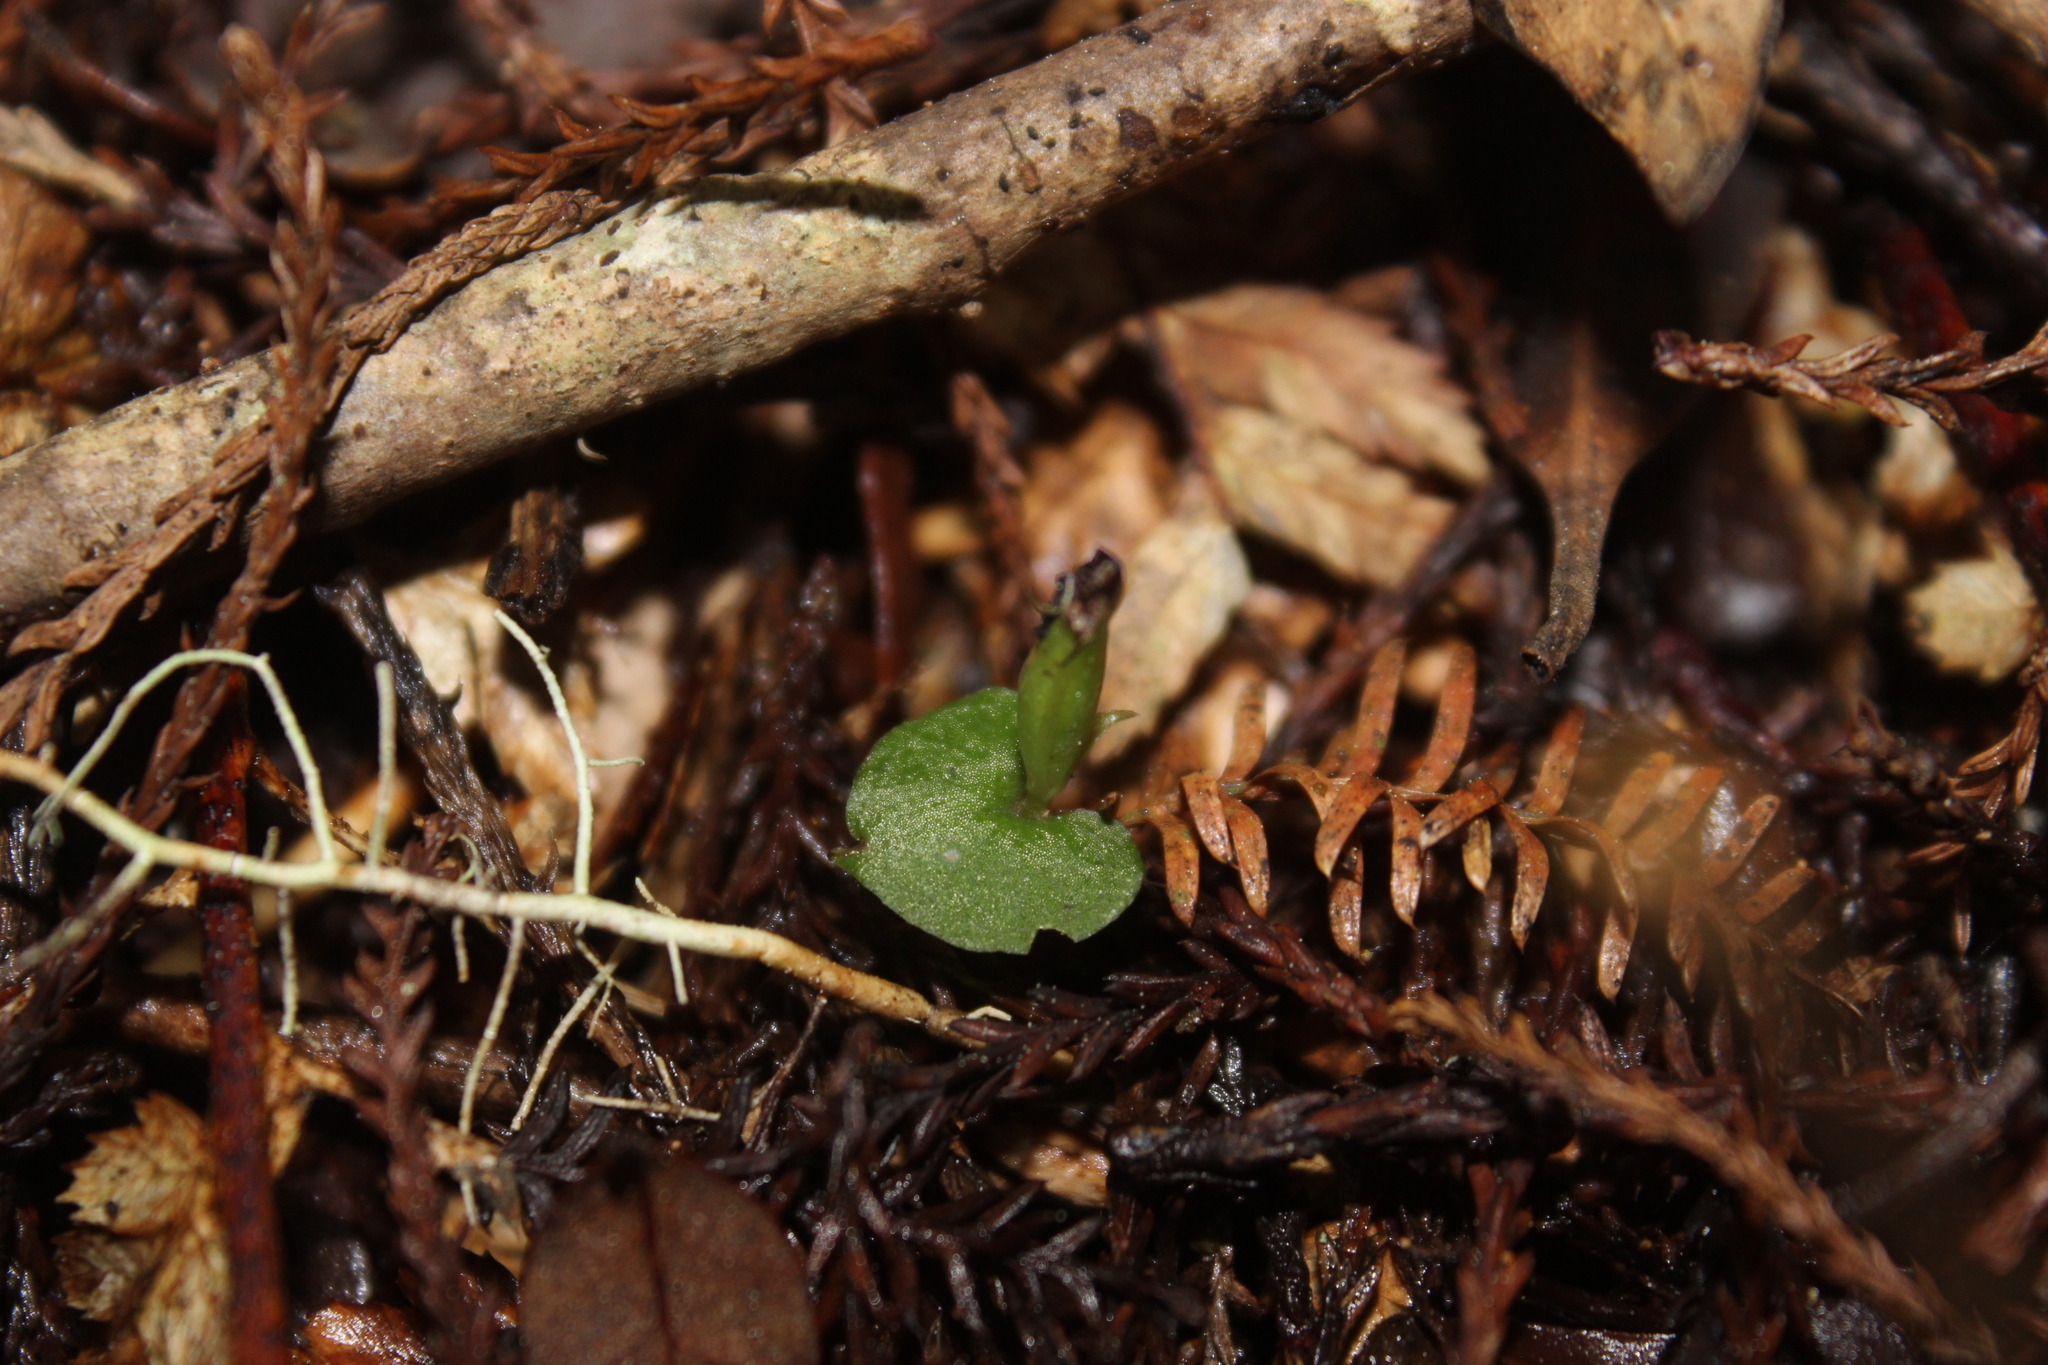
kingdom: Plantae
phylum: Tracheophyta
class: Liliopsida
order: Asparagales
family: Orchidaceae
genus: Corybas
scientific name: Corybas cheesemanii
